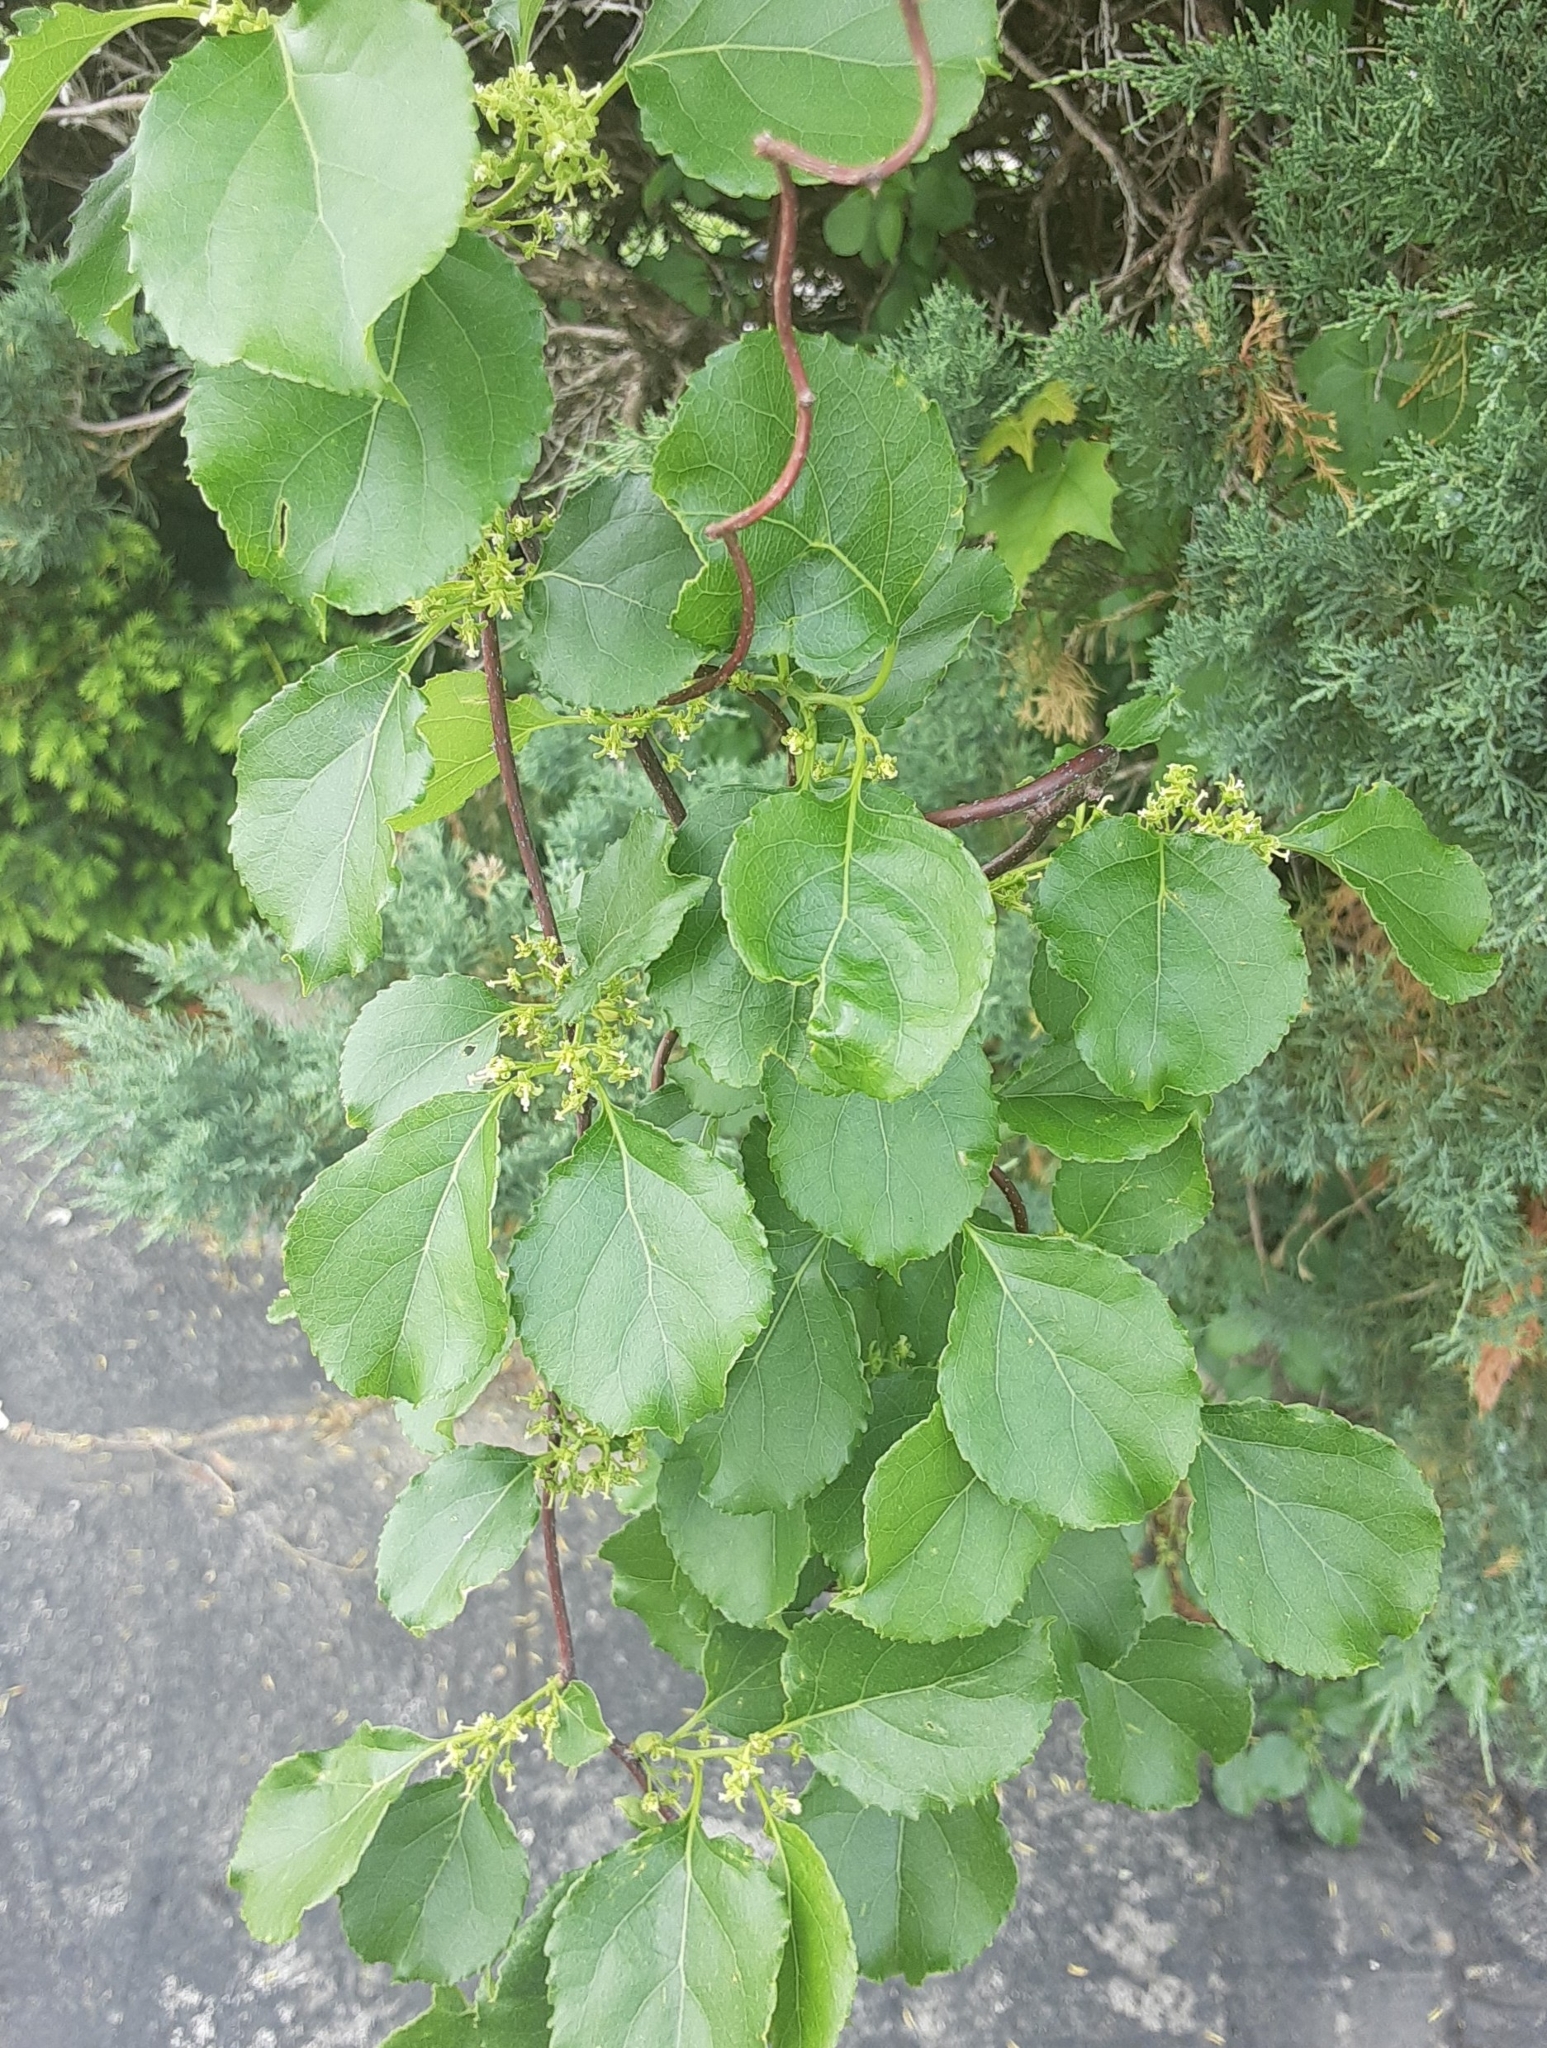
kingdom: Plantae
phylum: Tracheophyta
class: Magnoliopsida
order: Celastrales
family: Celastraceae
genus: Celastrus
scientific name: Celastrus orbiculatus
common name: Oriental bittersweet
